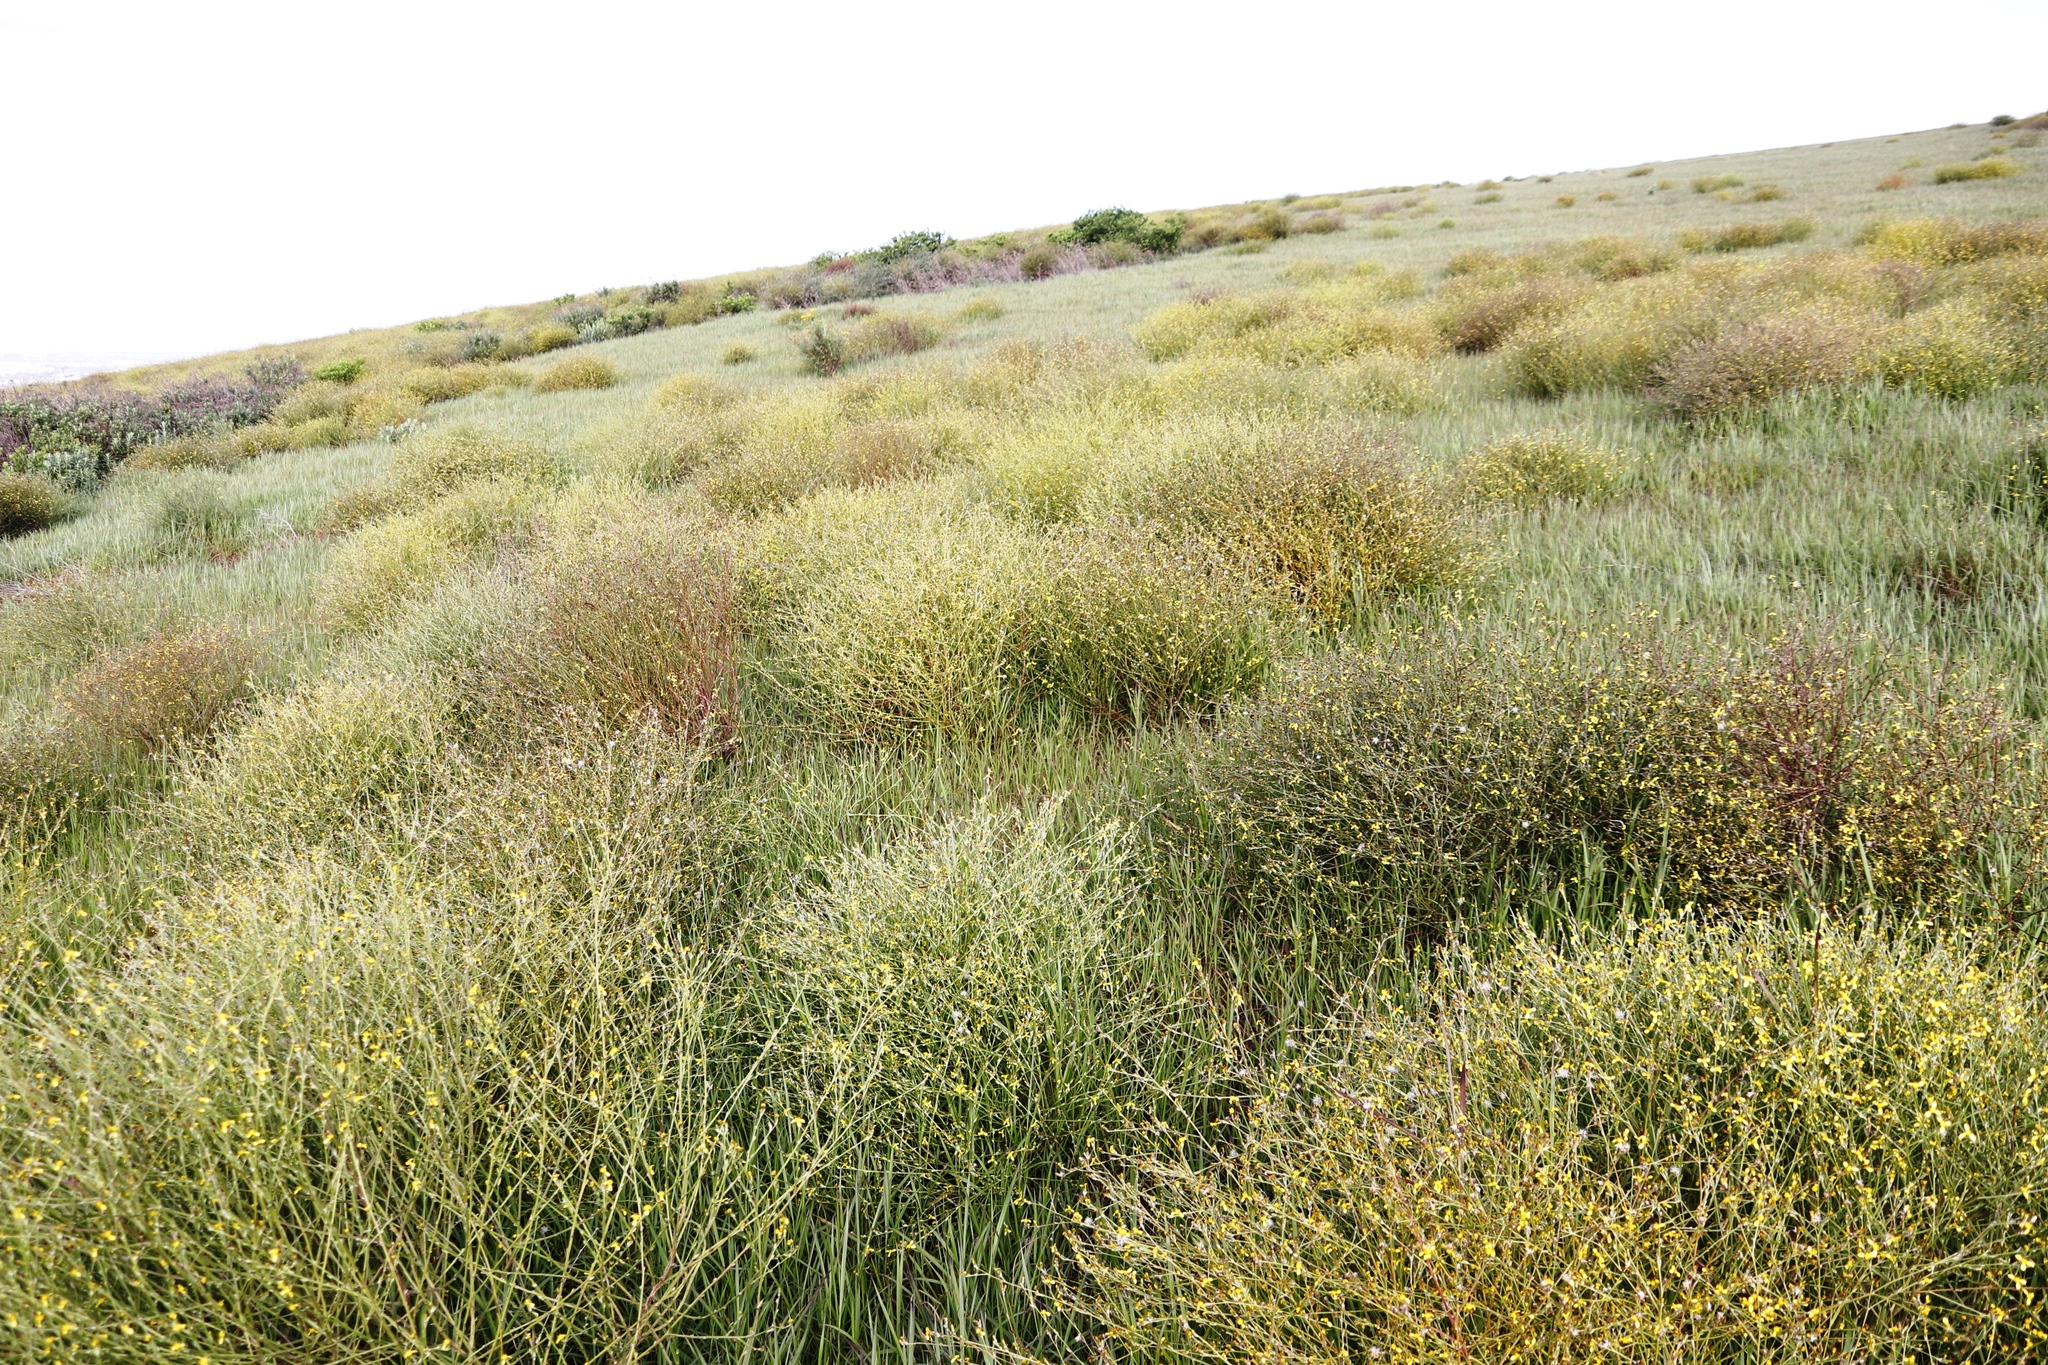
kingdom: Plantae
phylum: Tracheophyta
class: Magnoliopsida
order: Asterales
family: Asteraceae
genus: Senecio
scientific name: Senecio pubigerus
